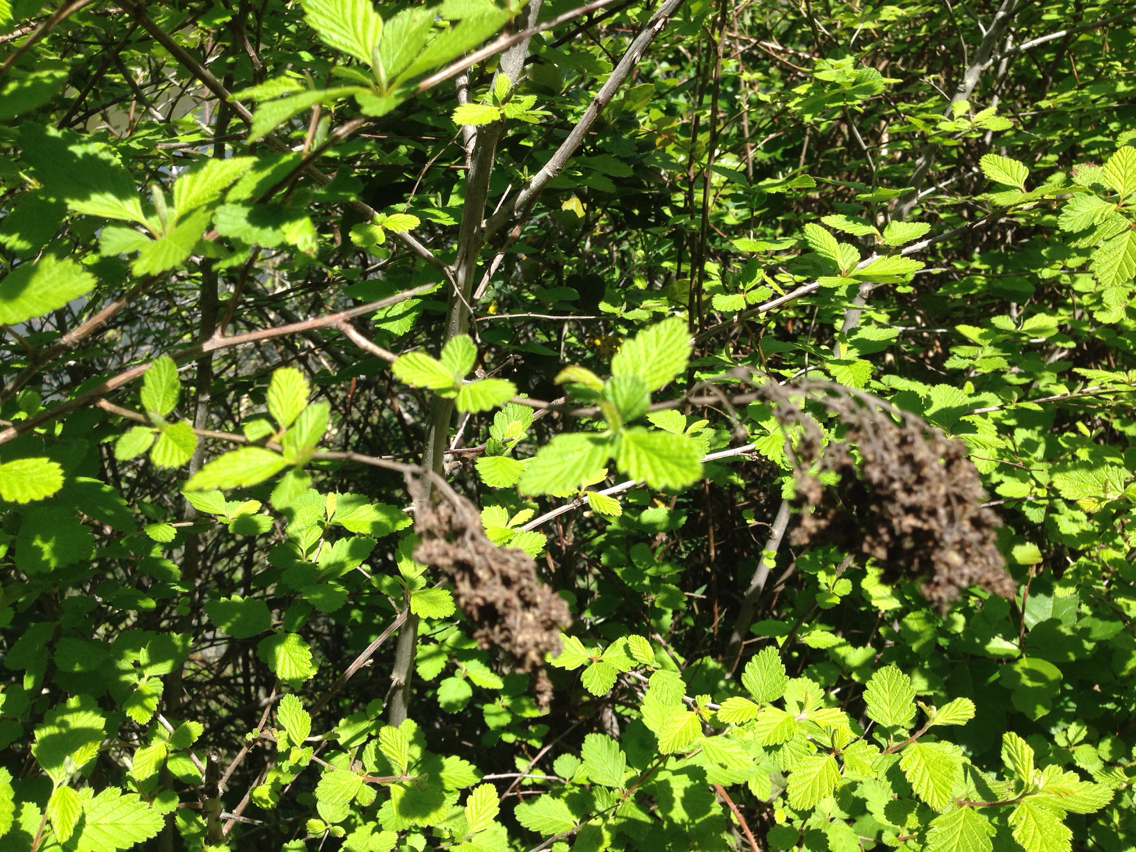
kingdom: Plantae
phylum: Tracheophyta
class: Magnoliopsida
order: Rosales
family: Rosaceae
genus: Holodiscus
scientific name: Holodiscus discolor
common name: Oceanspray
